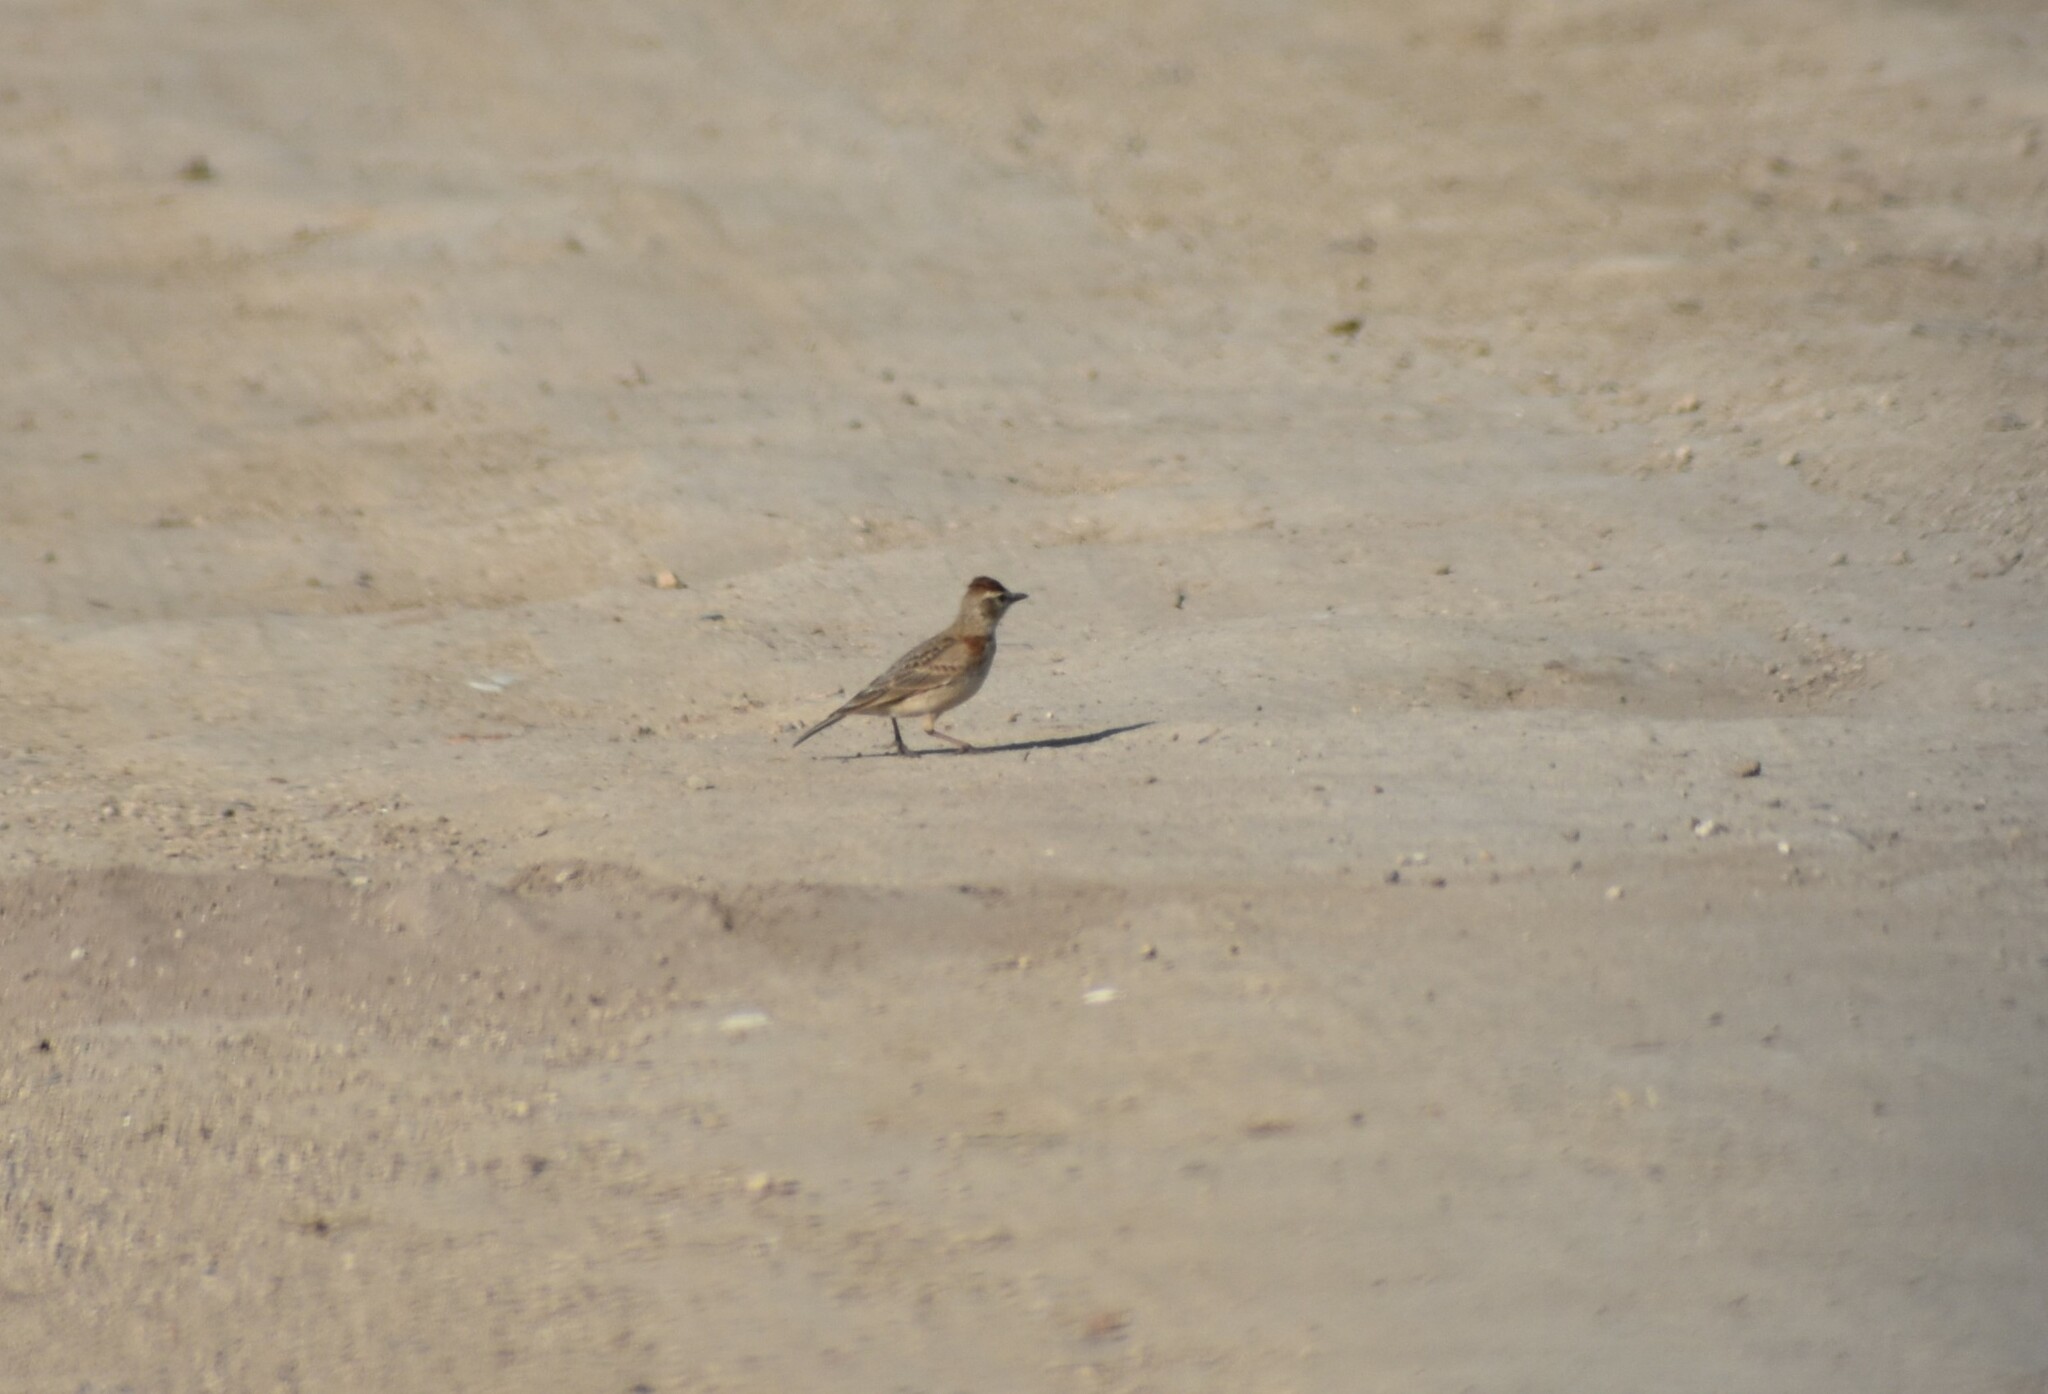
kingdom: Animalia
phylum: Chordata
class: Aves
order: Passeriformes
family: Alaudidae
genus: Calandrella
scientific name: Calandrella cinerea
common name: Red-capped lark
